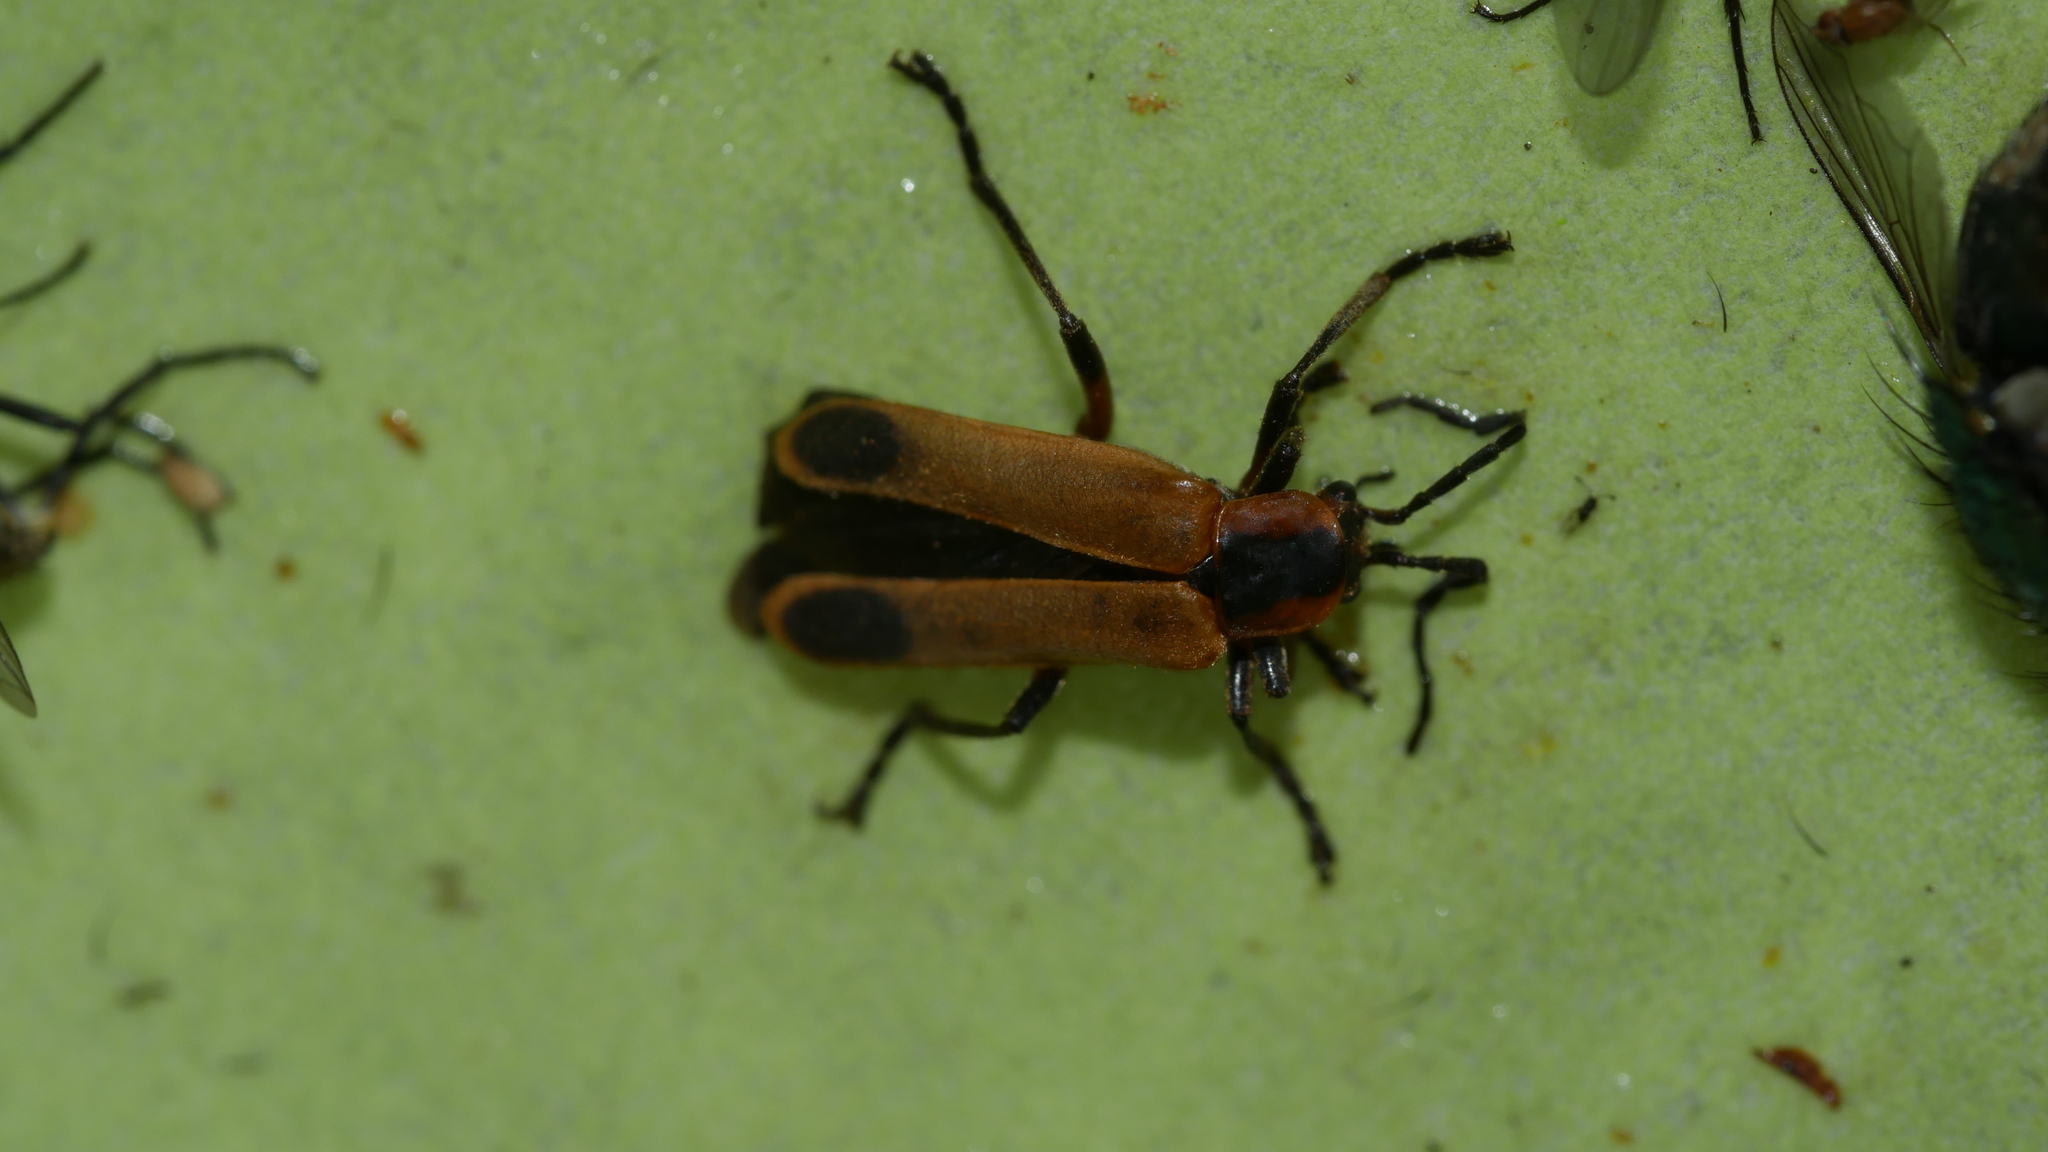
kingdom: Animalia
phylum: Arthropoda
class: Insecta
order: Coleoptera
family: Cantharidae
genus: Chauliognathus
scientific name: Chauliognathus marginatus
